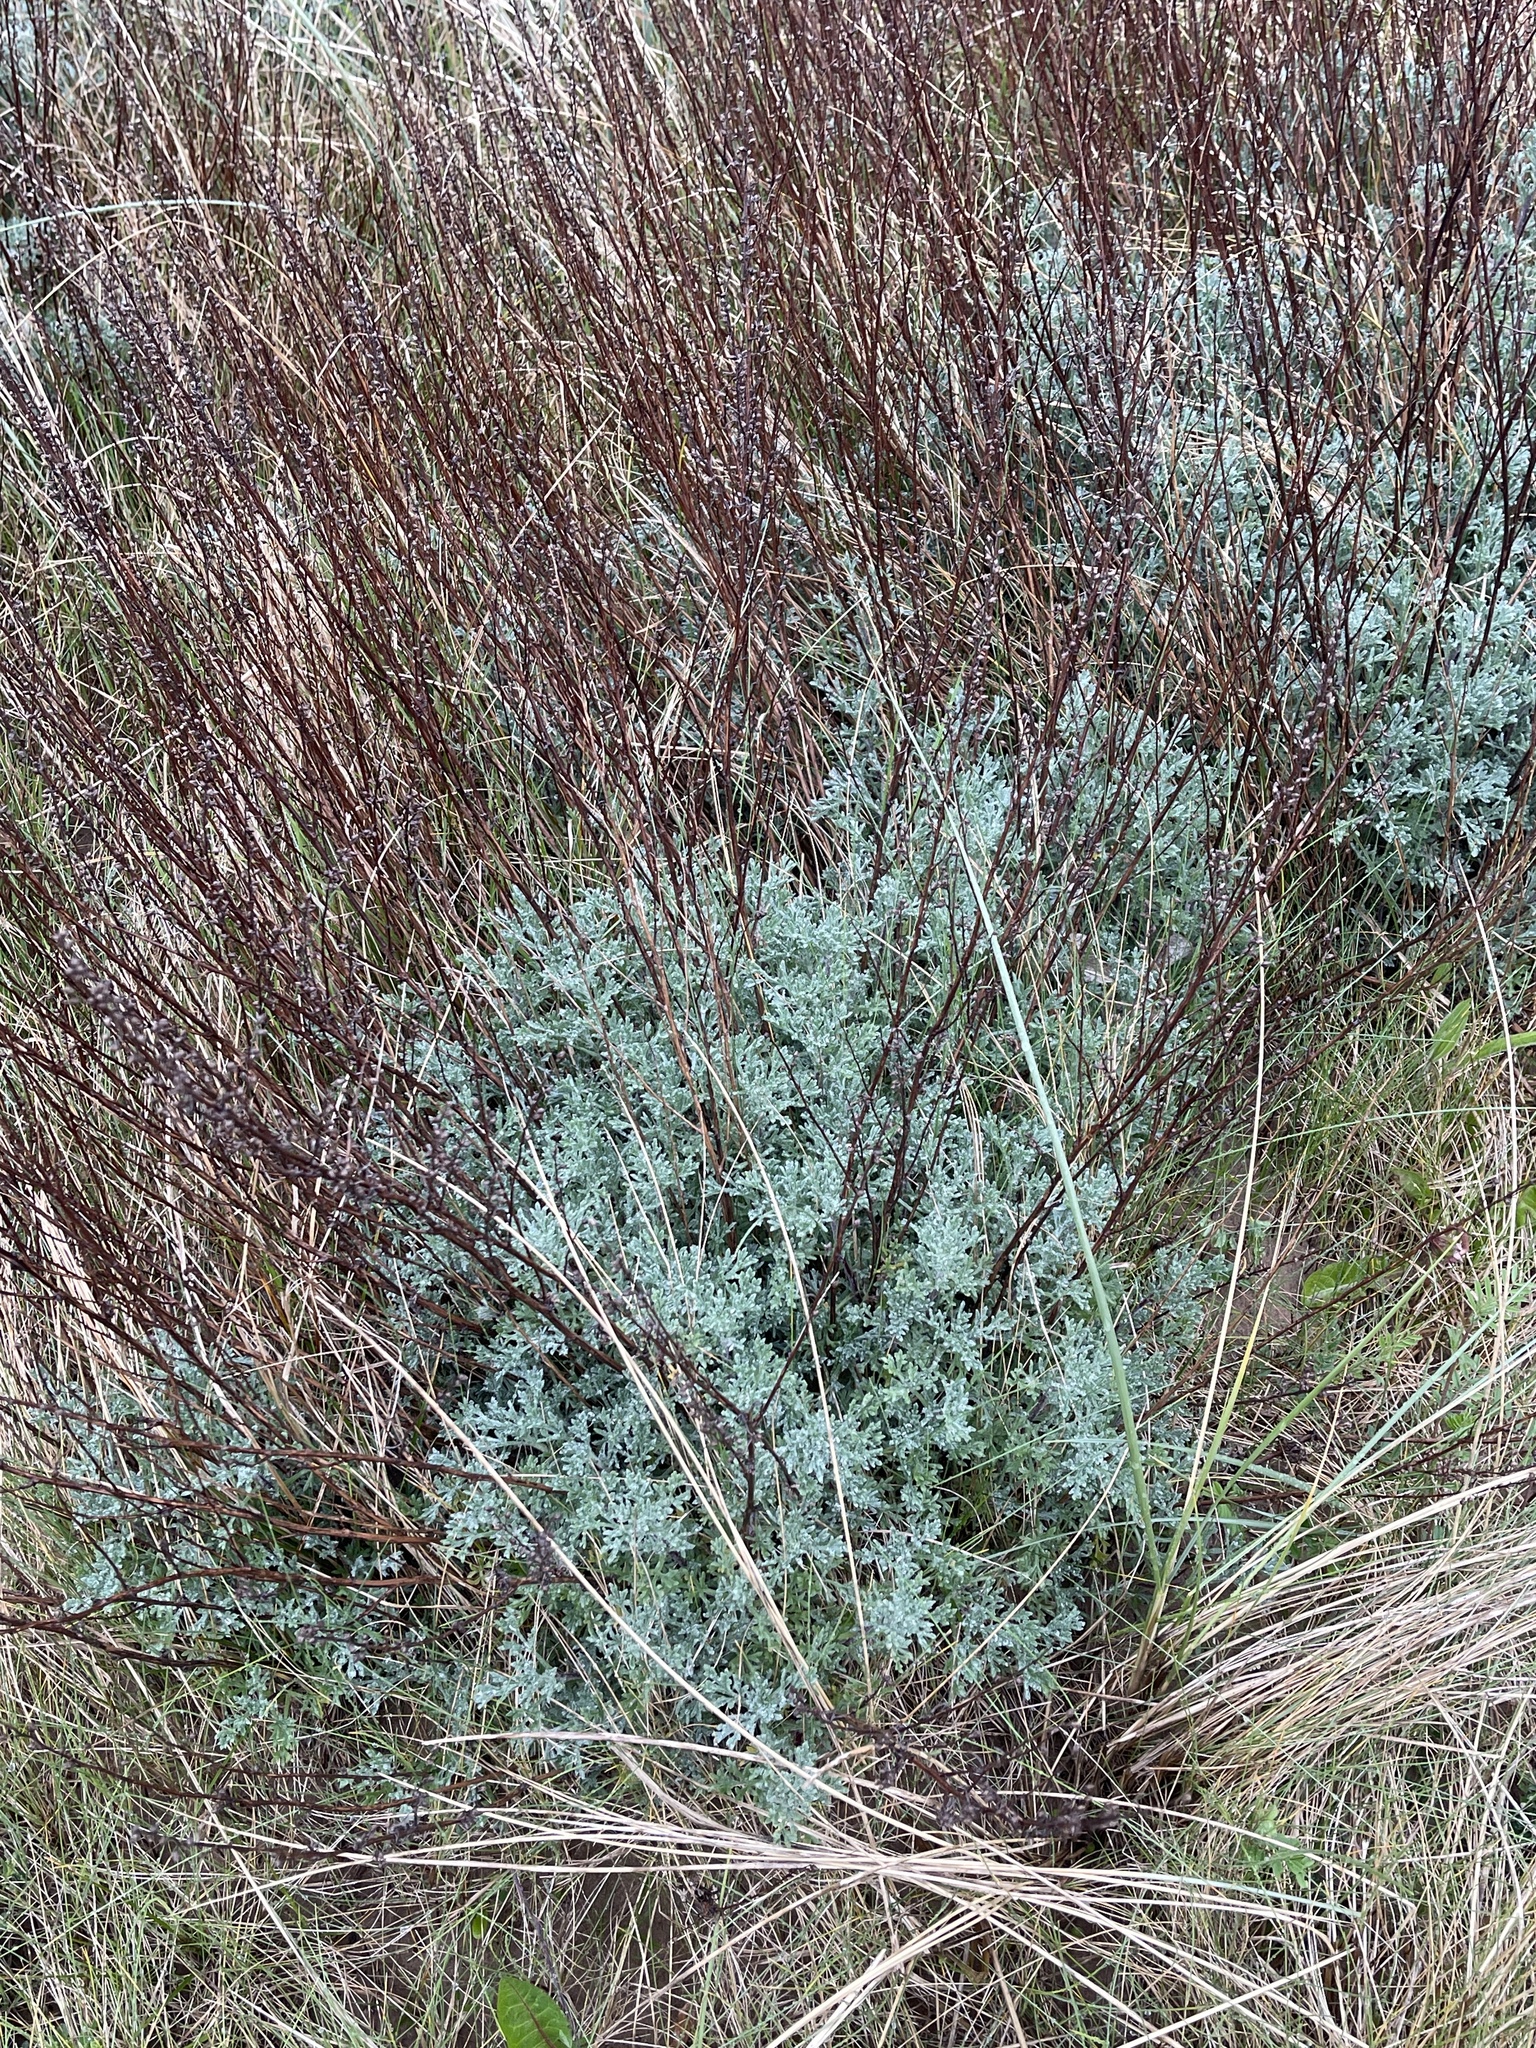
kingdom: Plantae
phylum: Tracheophyta
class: Magnoliopsida
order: Asterales
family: Asteraceae
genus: Artemisia
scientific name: Artemisia crithmifolia
